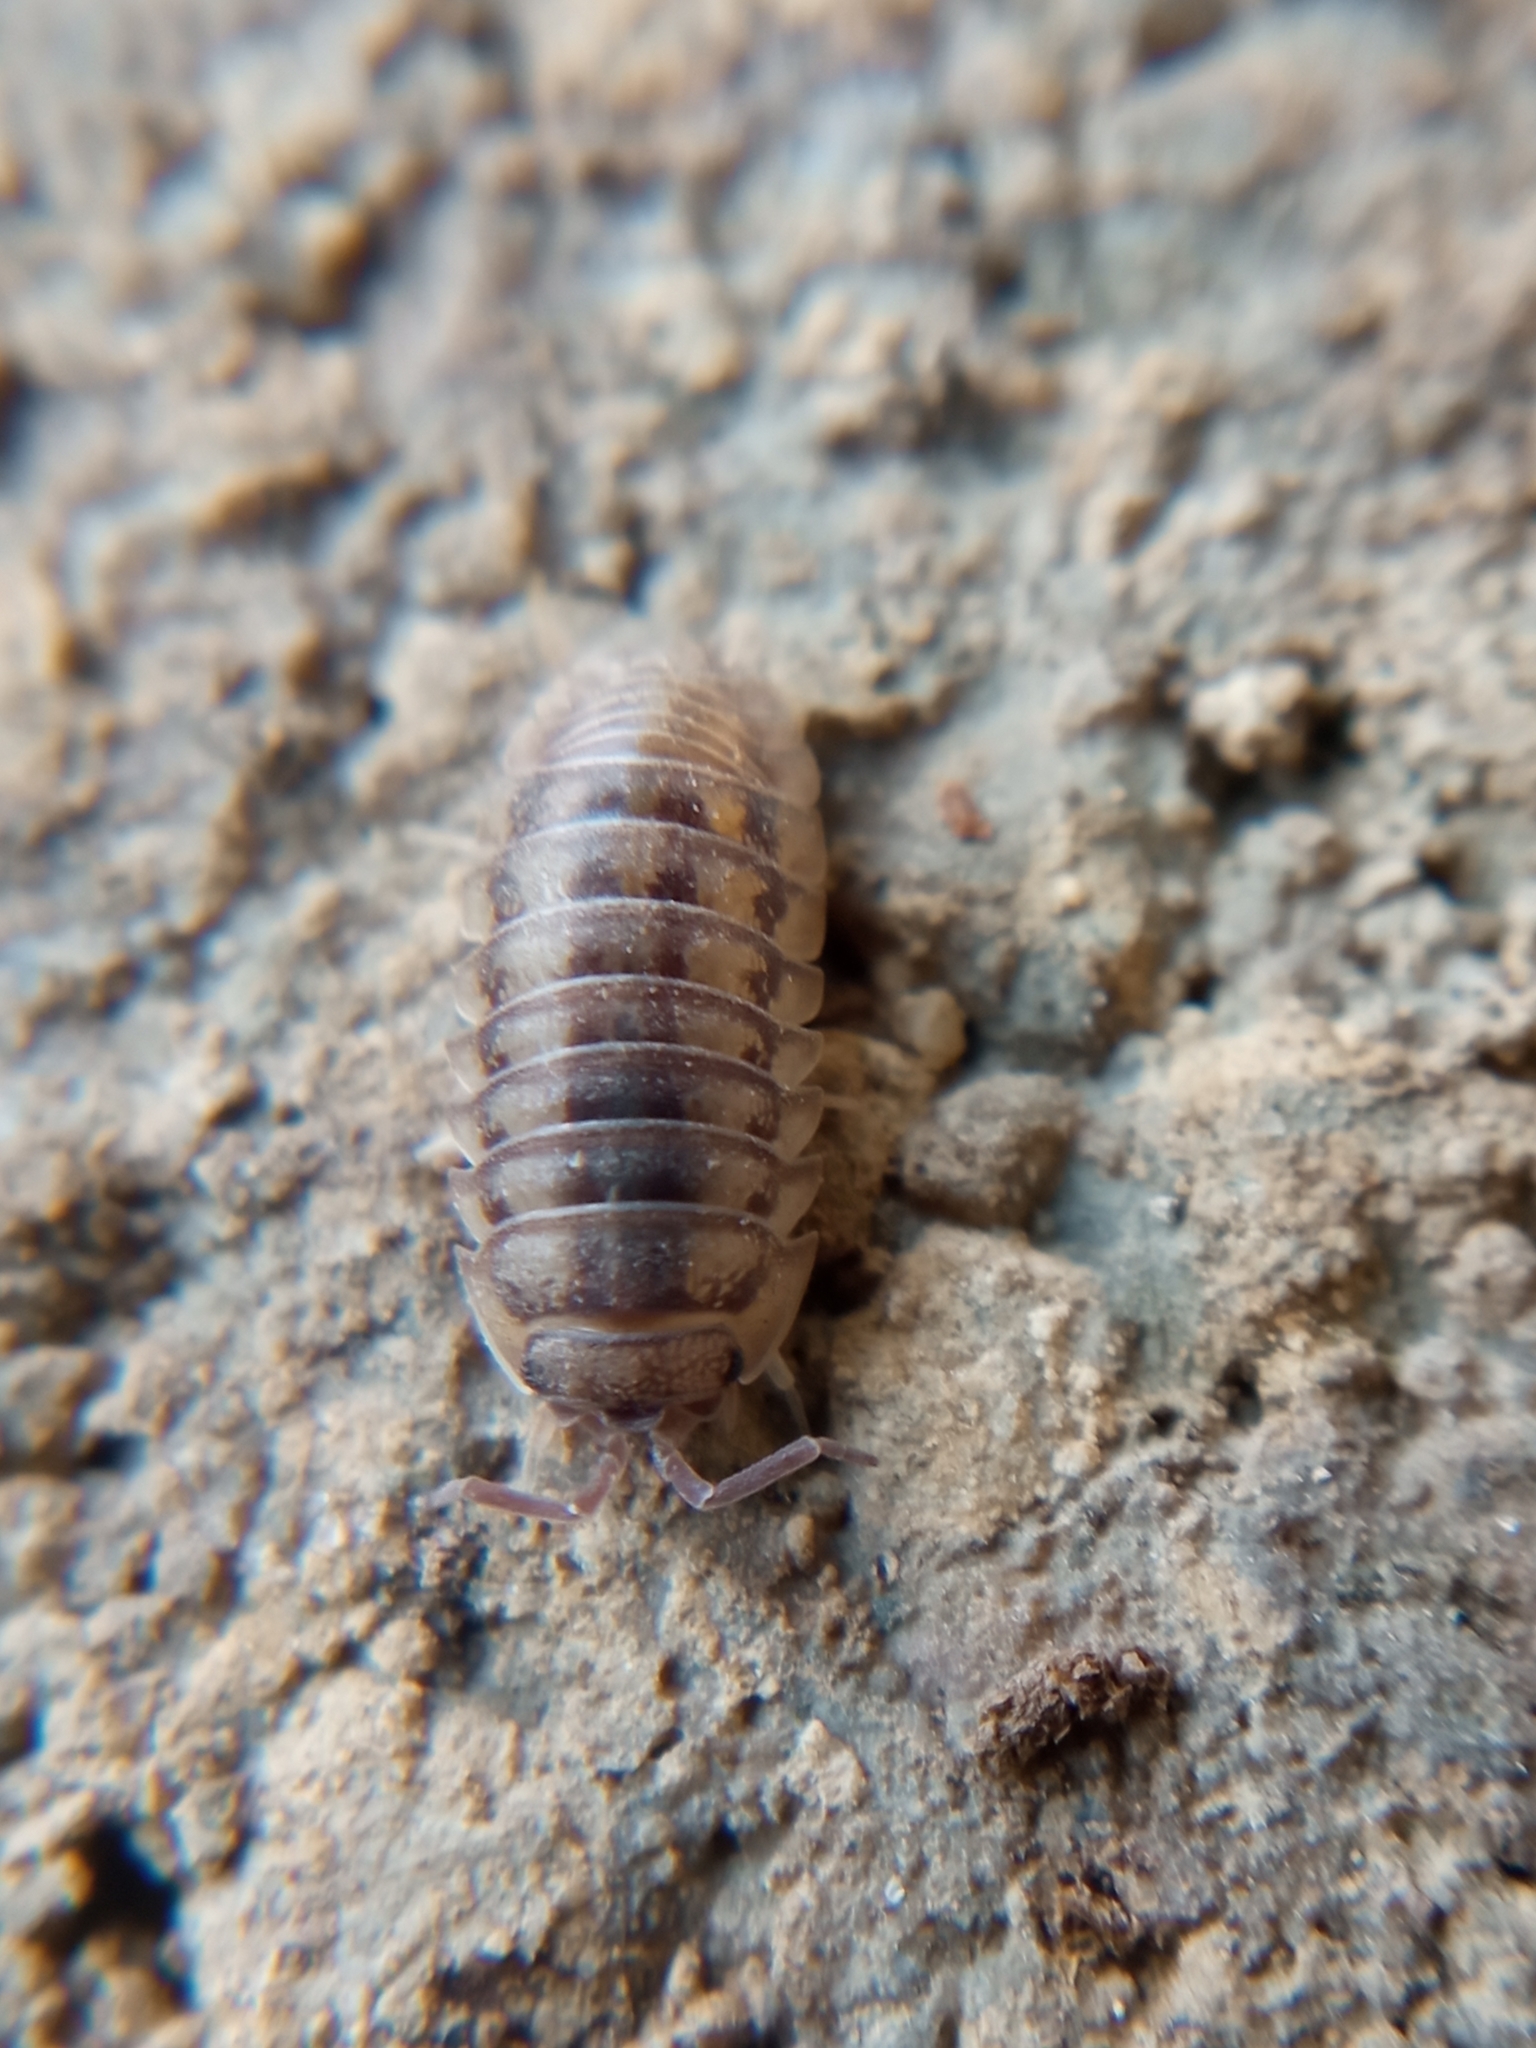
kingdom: Animalia
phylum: Arthropoda
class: Malacostraca
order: Isopoda
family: Armadillidiidae
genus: Armadillidium
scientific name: Armadillidium nasatum
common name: Isopod
